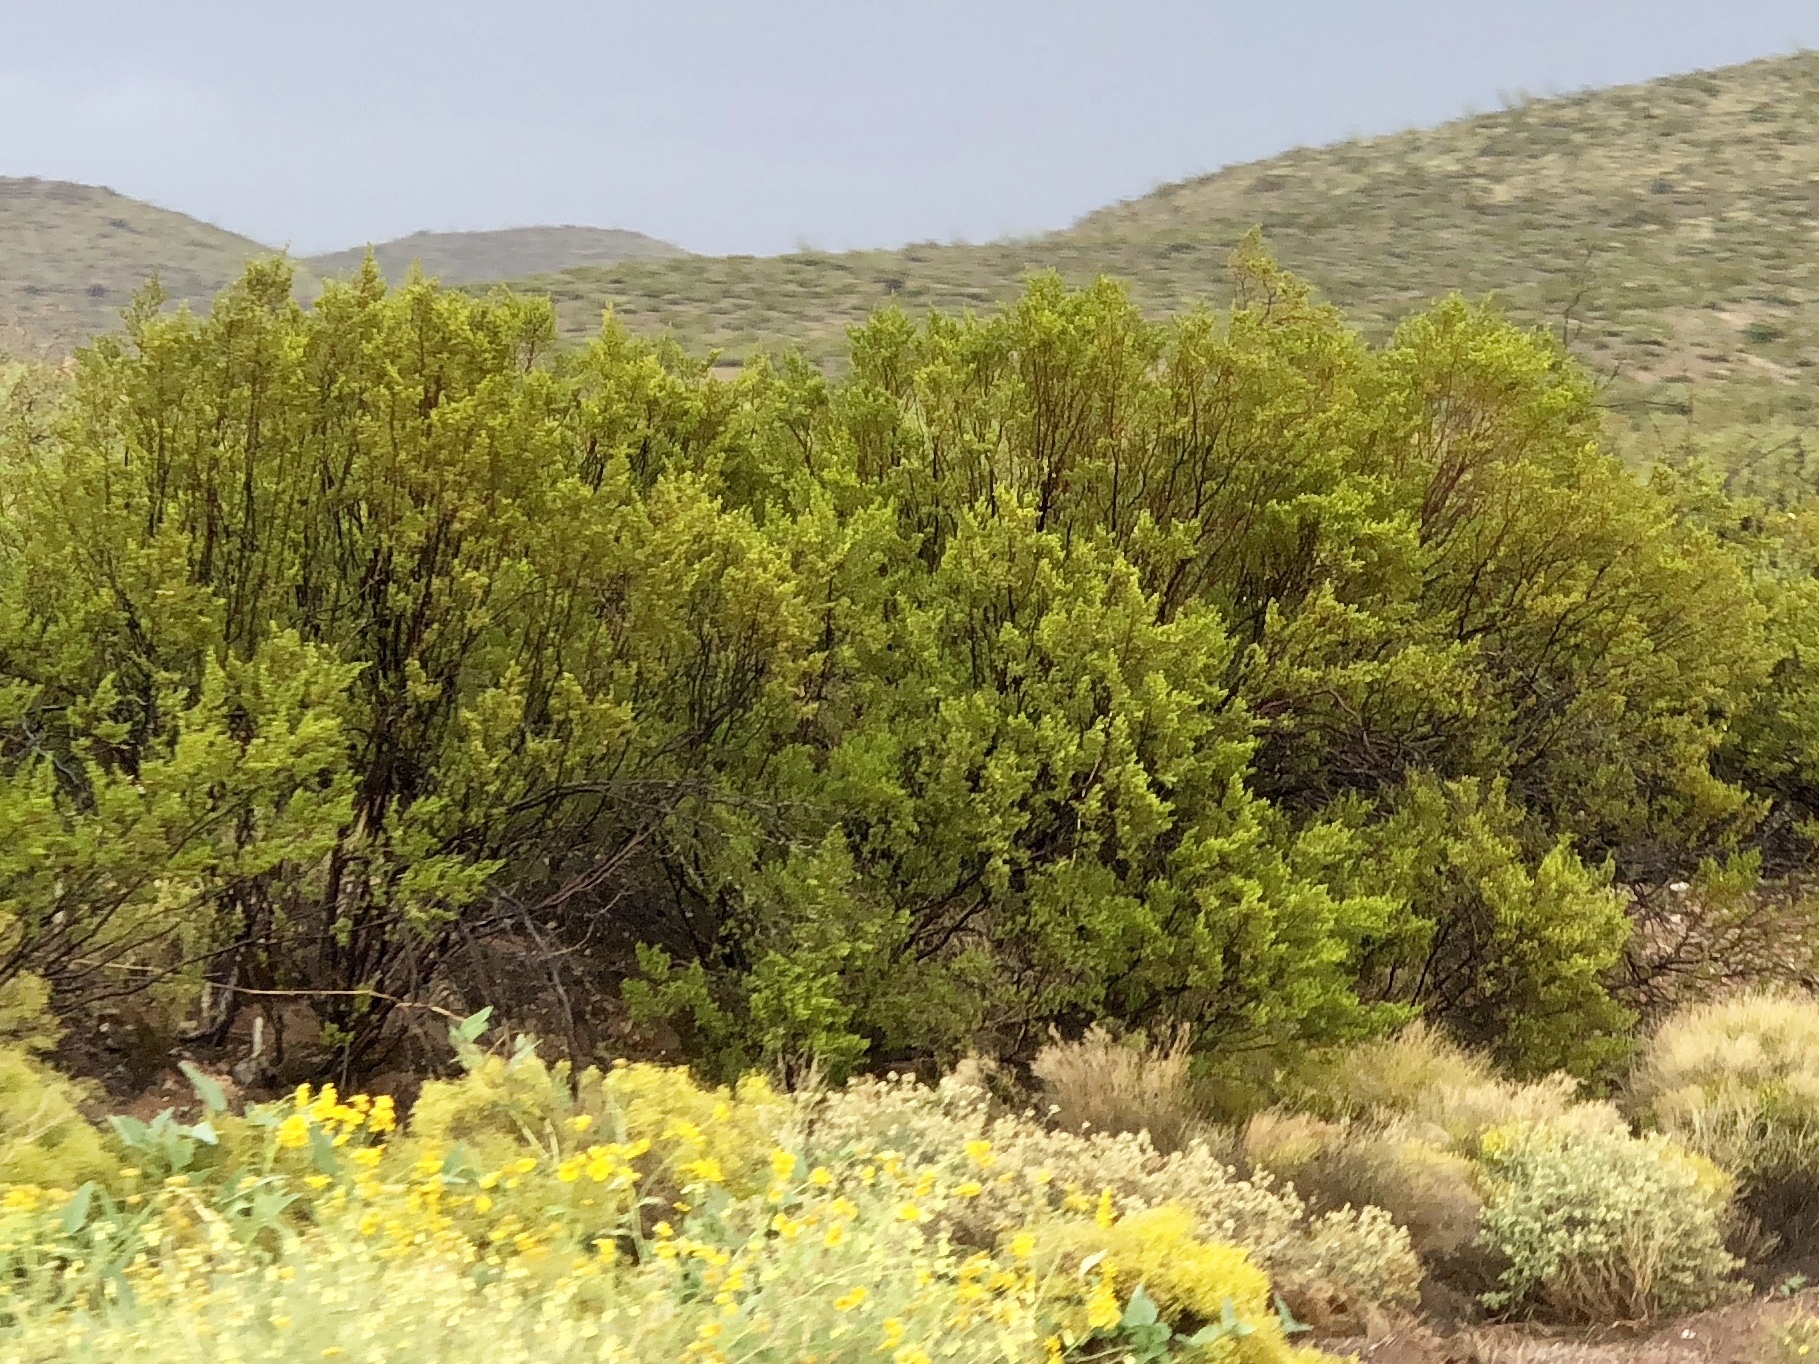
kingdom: Plantae
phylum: Tracheophyta
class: Magnoliopsida
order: Zygophyllales
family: Zygophyllaceae
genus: Larrea
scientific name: Larrea tridentata
